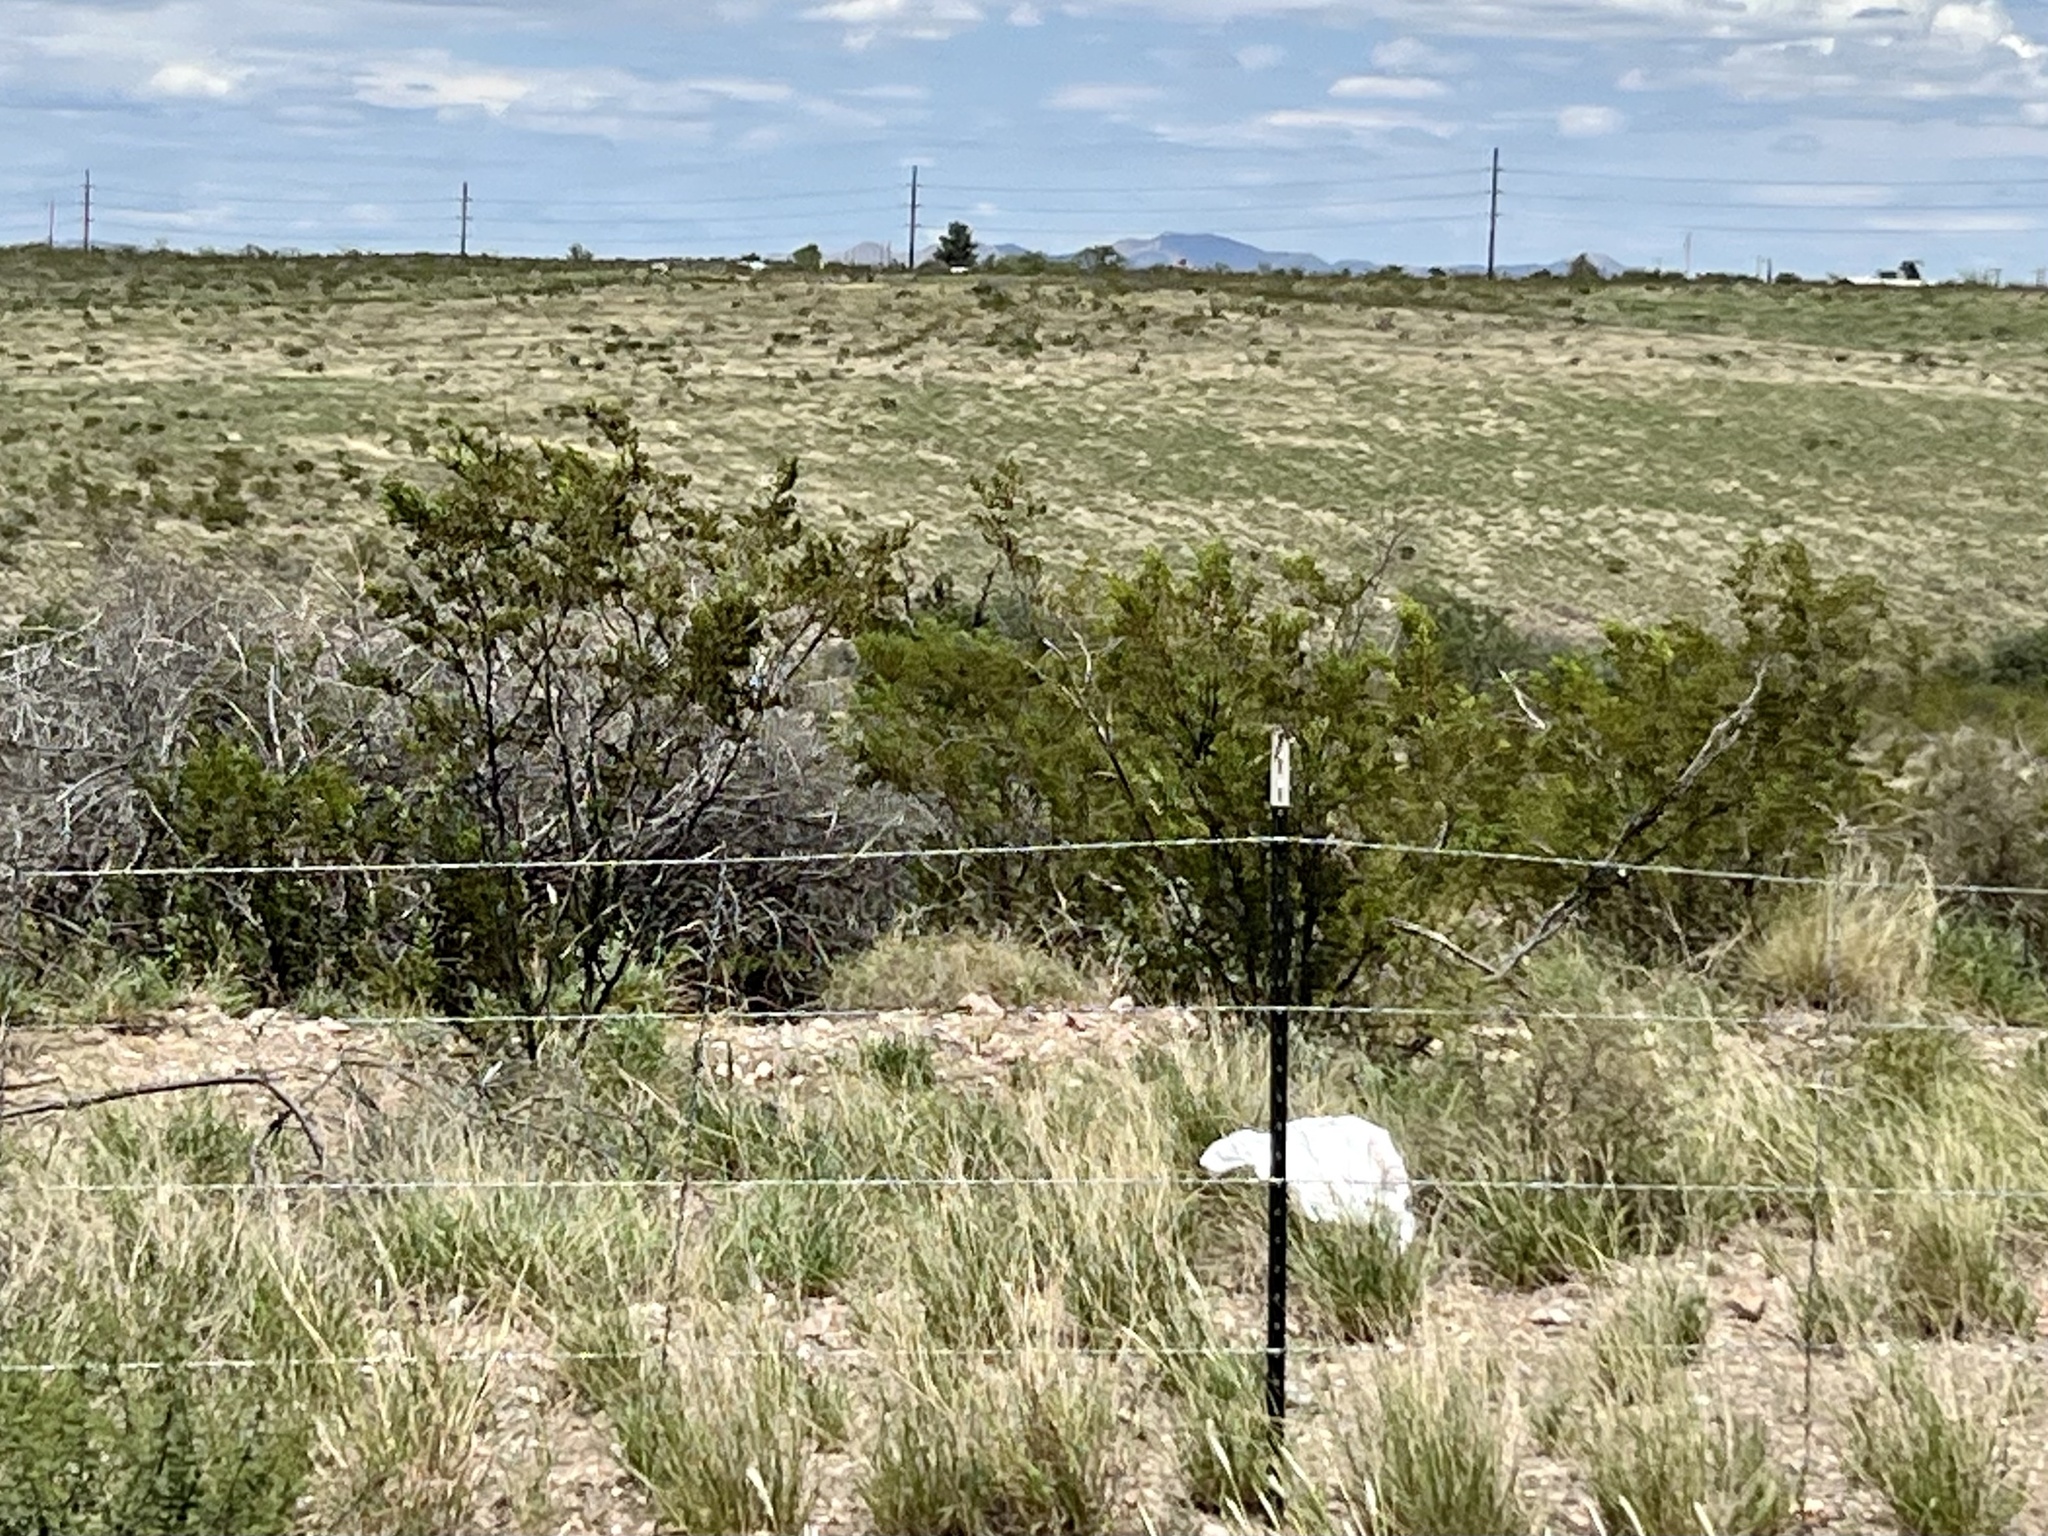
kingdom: Plantae
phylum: Tracheophyta
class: Magnoliopsida
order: Zygophyllales
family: Zygophyllaceae
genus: Larrea
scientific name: Larrea tridentata
